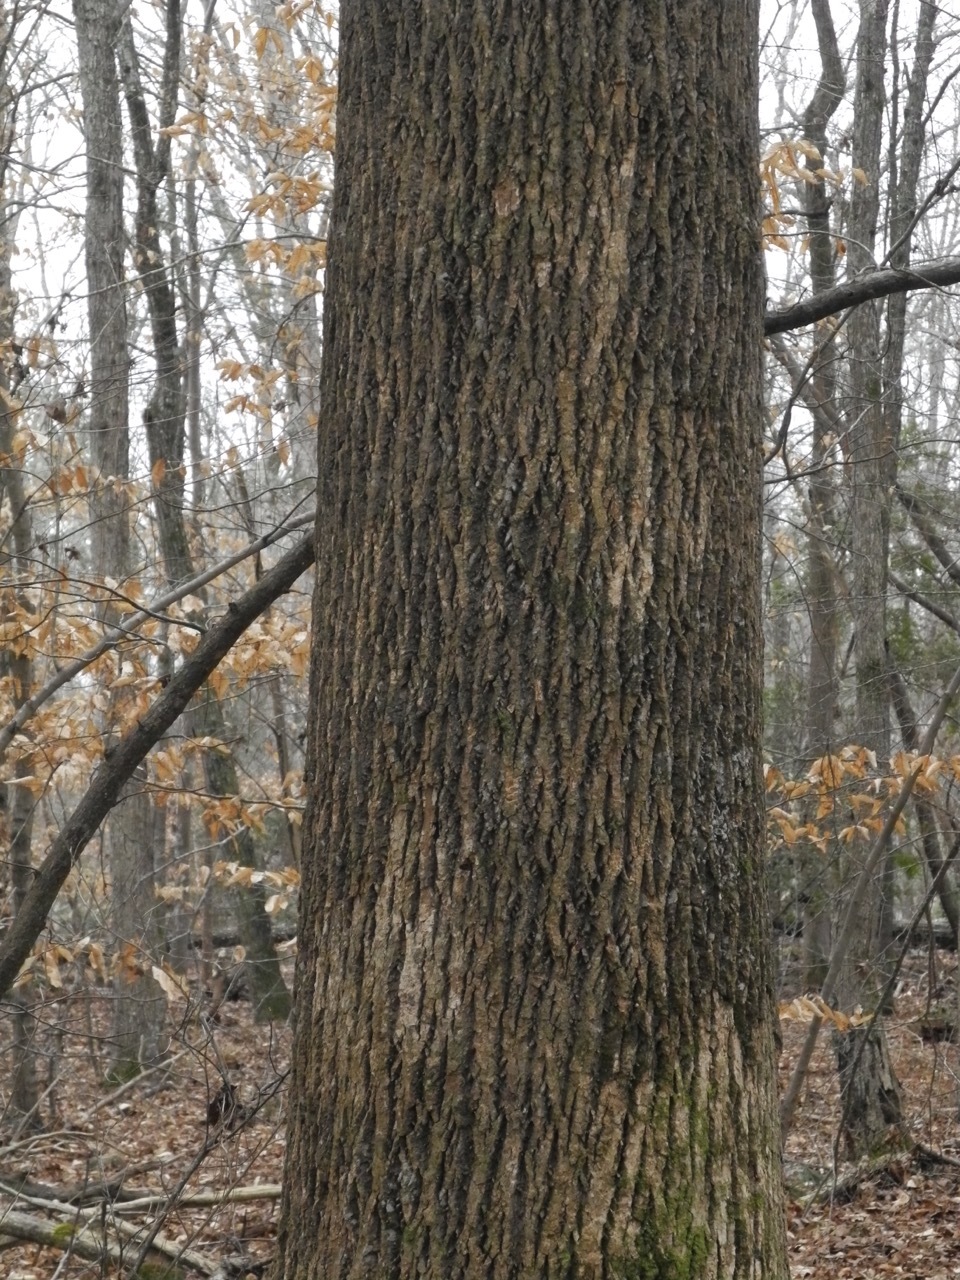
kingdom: Plantae
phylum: Tracheophyta
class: Magnoliopsida
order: Magnoliales
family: Magnoliaceae
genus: Liriodendron
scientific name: Liriodendron tulipifera
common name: Tulip tree
